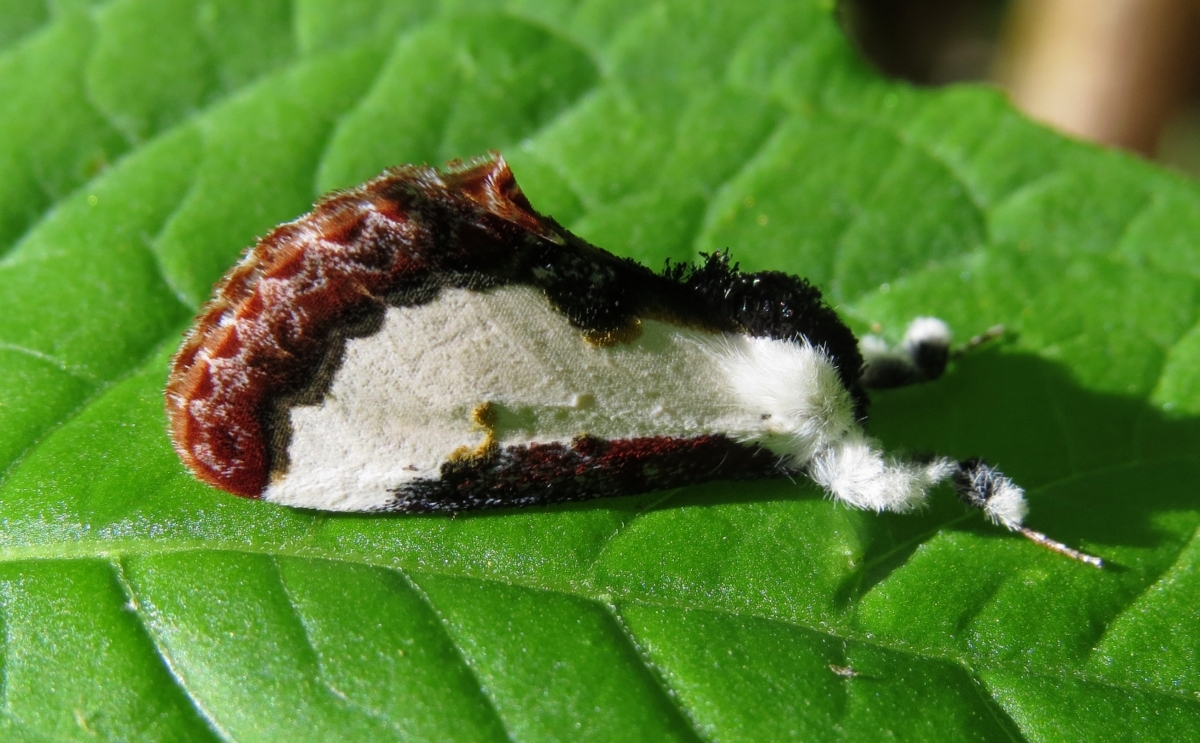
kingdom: Animalia
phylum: Arthropoda
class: Insecta
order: Lepidoptera
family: Noctuidae
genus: Eudryas
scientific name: Eudryas unio
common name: Pearly wood-nymph
